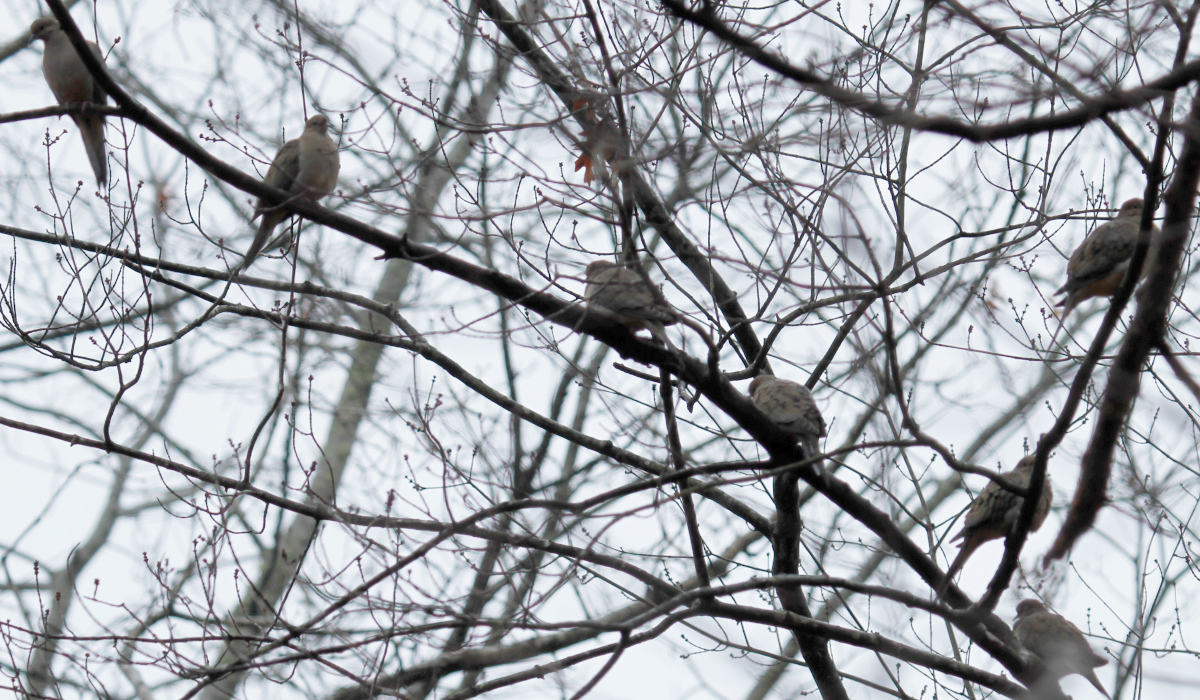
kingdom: Animalia
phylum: Chordata
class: Aves
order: Columbiformes
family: Columbidae
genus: Zenaida
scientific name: Zenaida macroura
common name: Mourning dove
